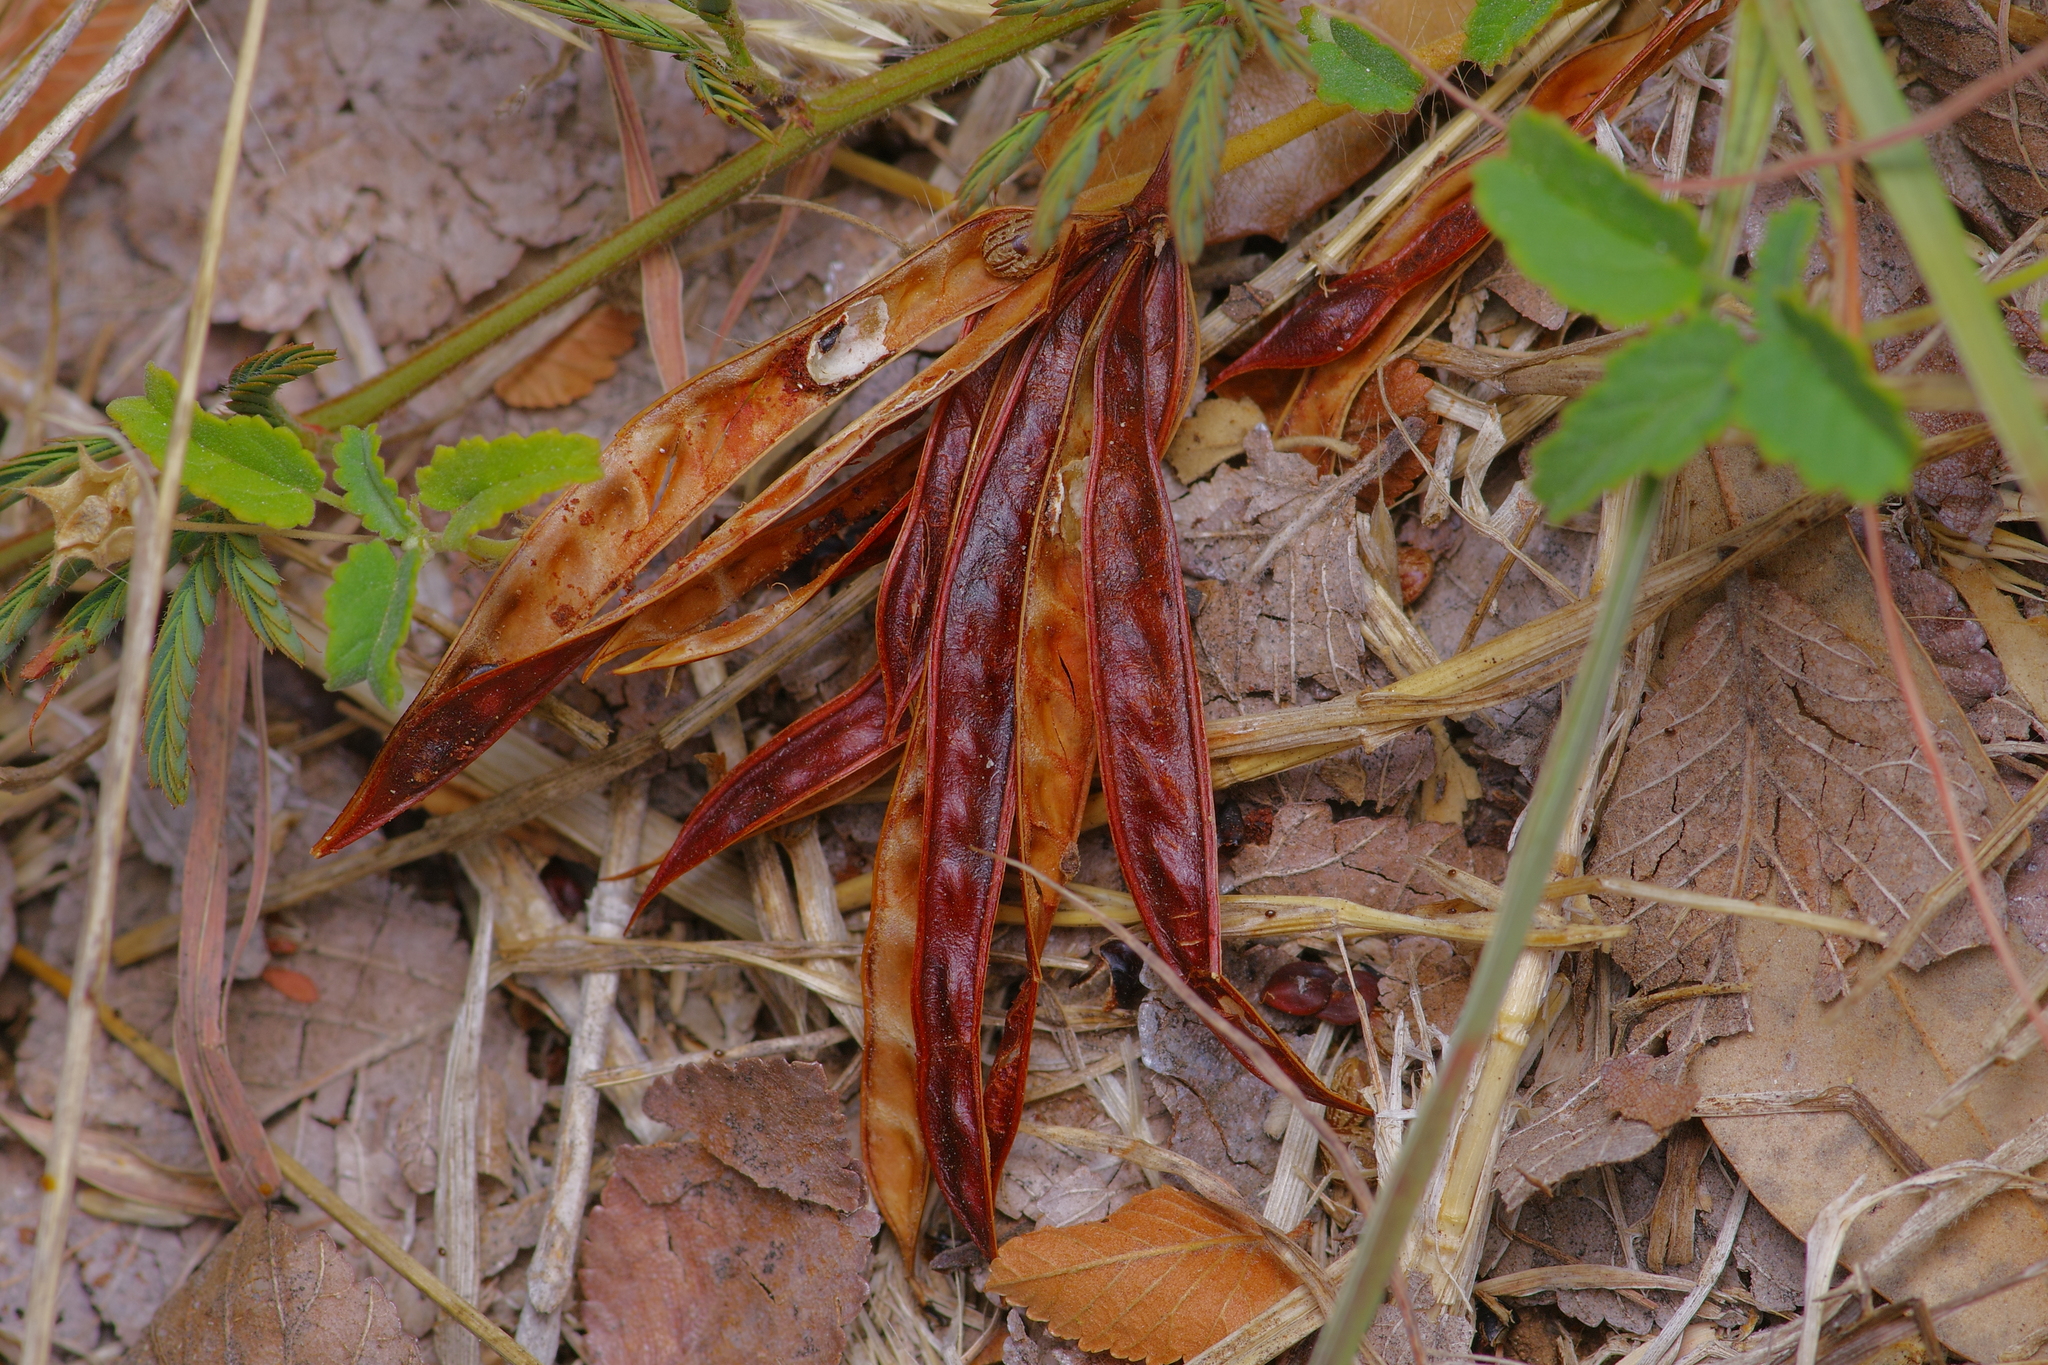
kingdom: Plantae
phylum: Tracheophyta
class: Magnoliopsida
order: Fabales
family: Fabaceae
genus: Desmanthus
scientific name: Desmanthus virgatus
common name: Wild tantan
